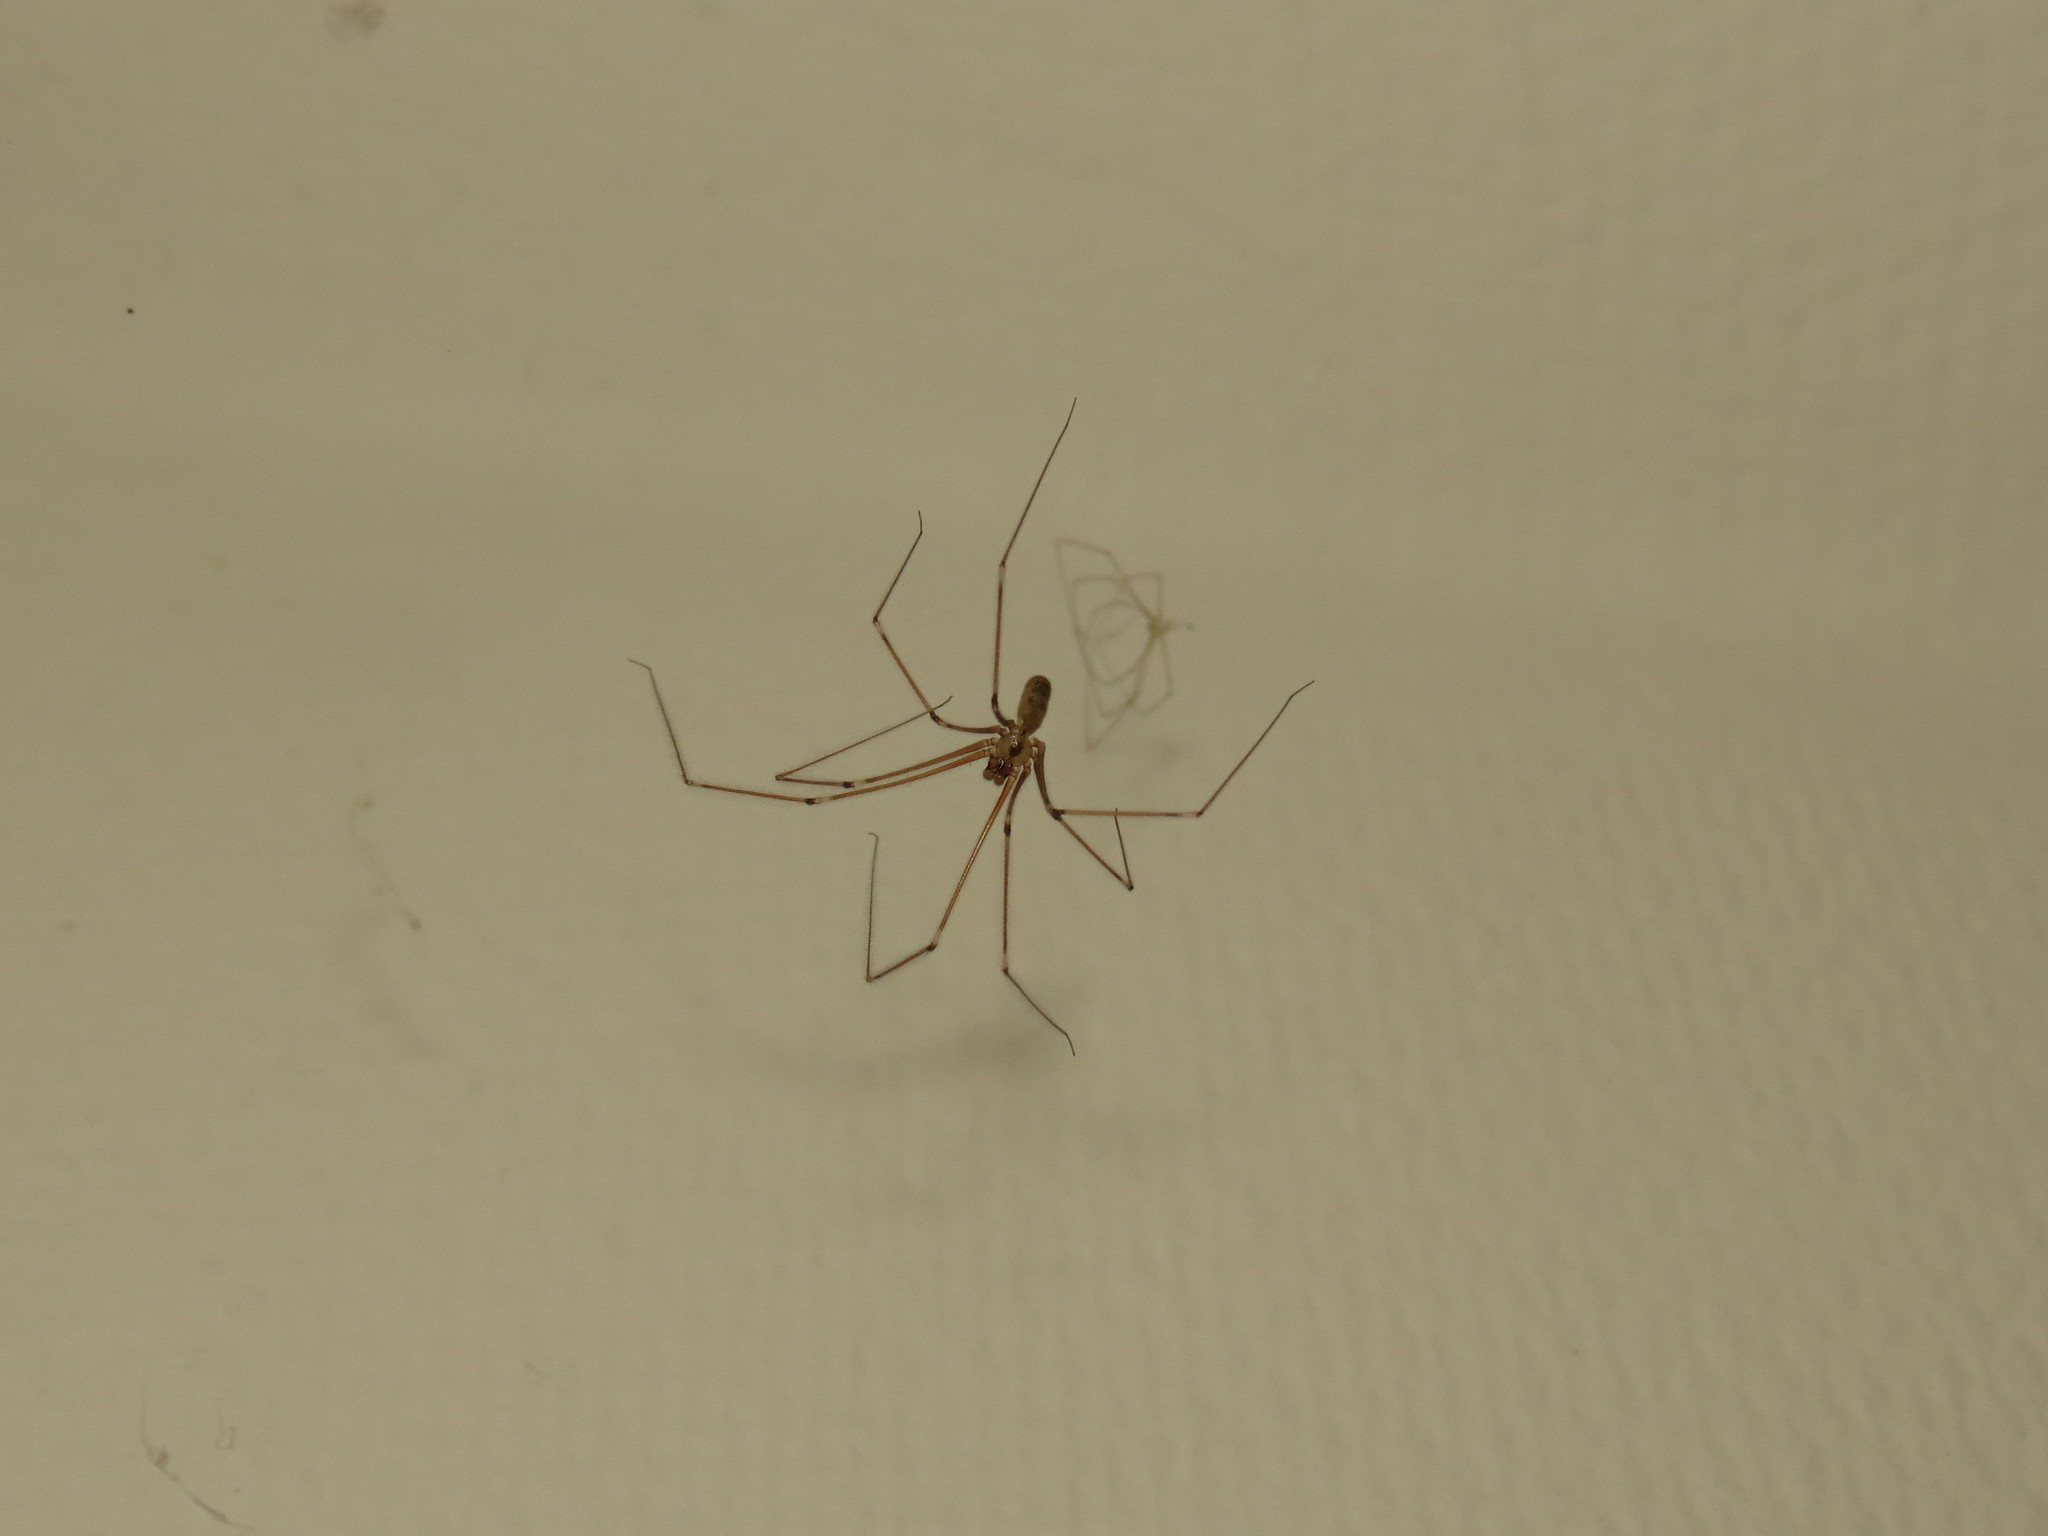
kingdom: Animalia
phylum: Arthropoda
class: Arachnida
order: Araneae
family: Pholcidae
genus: Pholcus
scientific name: Pholcus phalangioides
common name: Longbodied cellar spider
